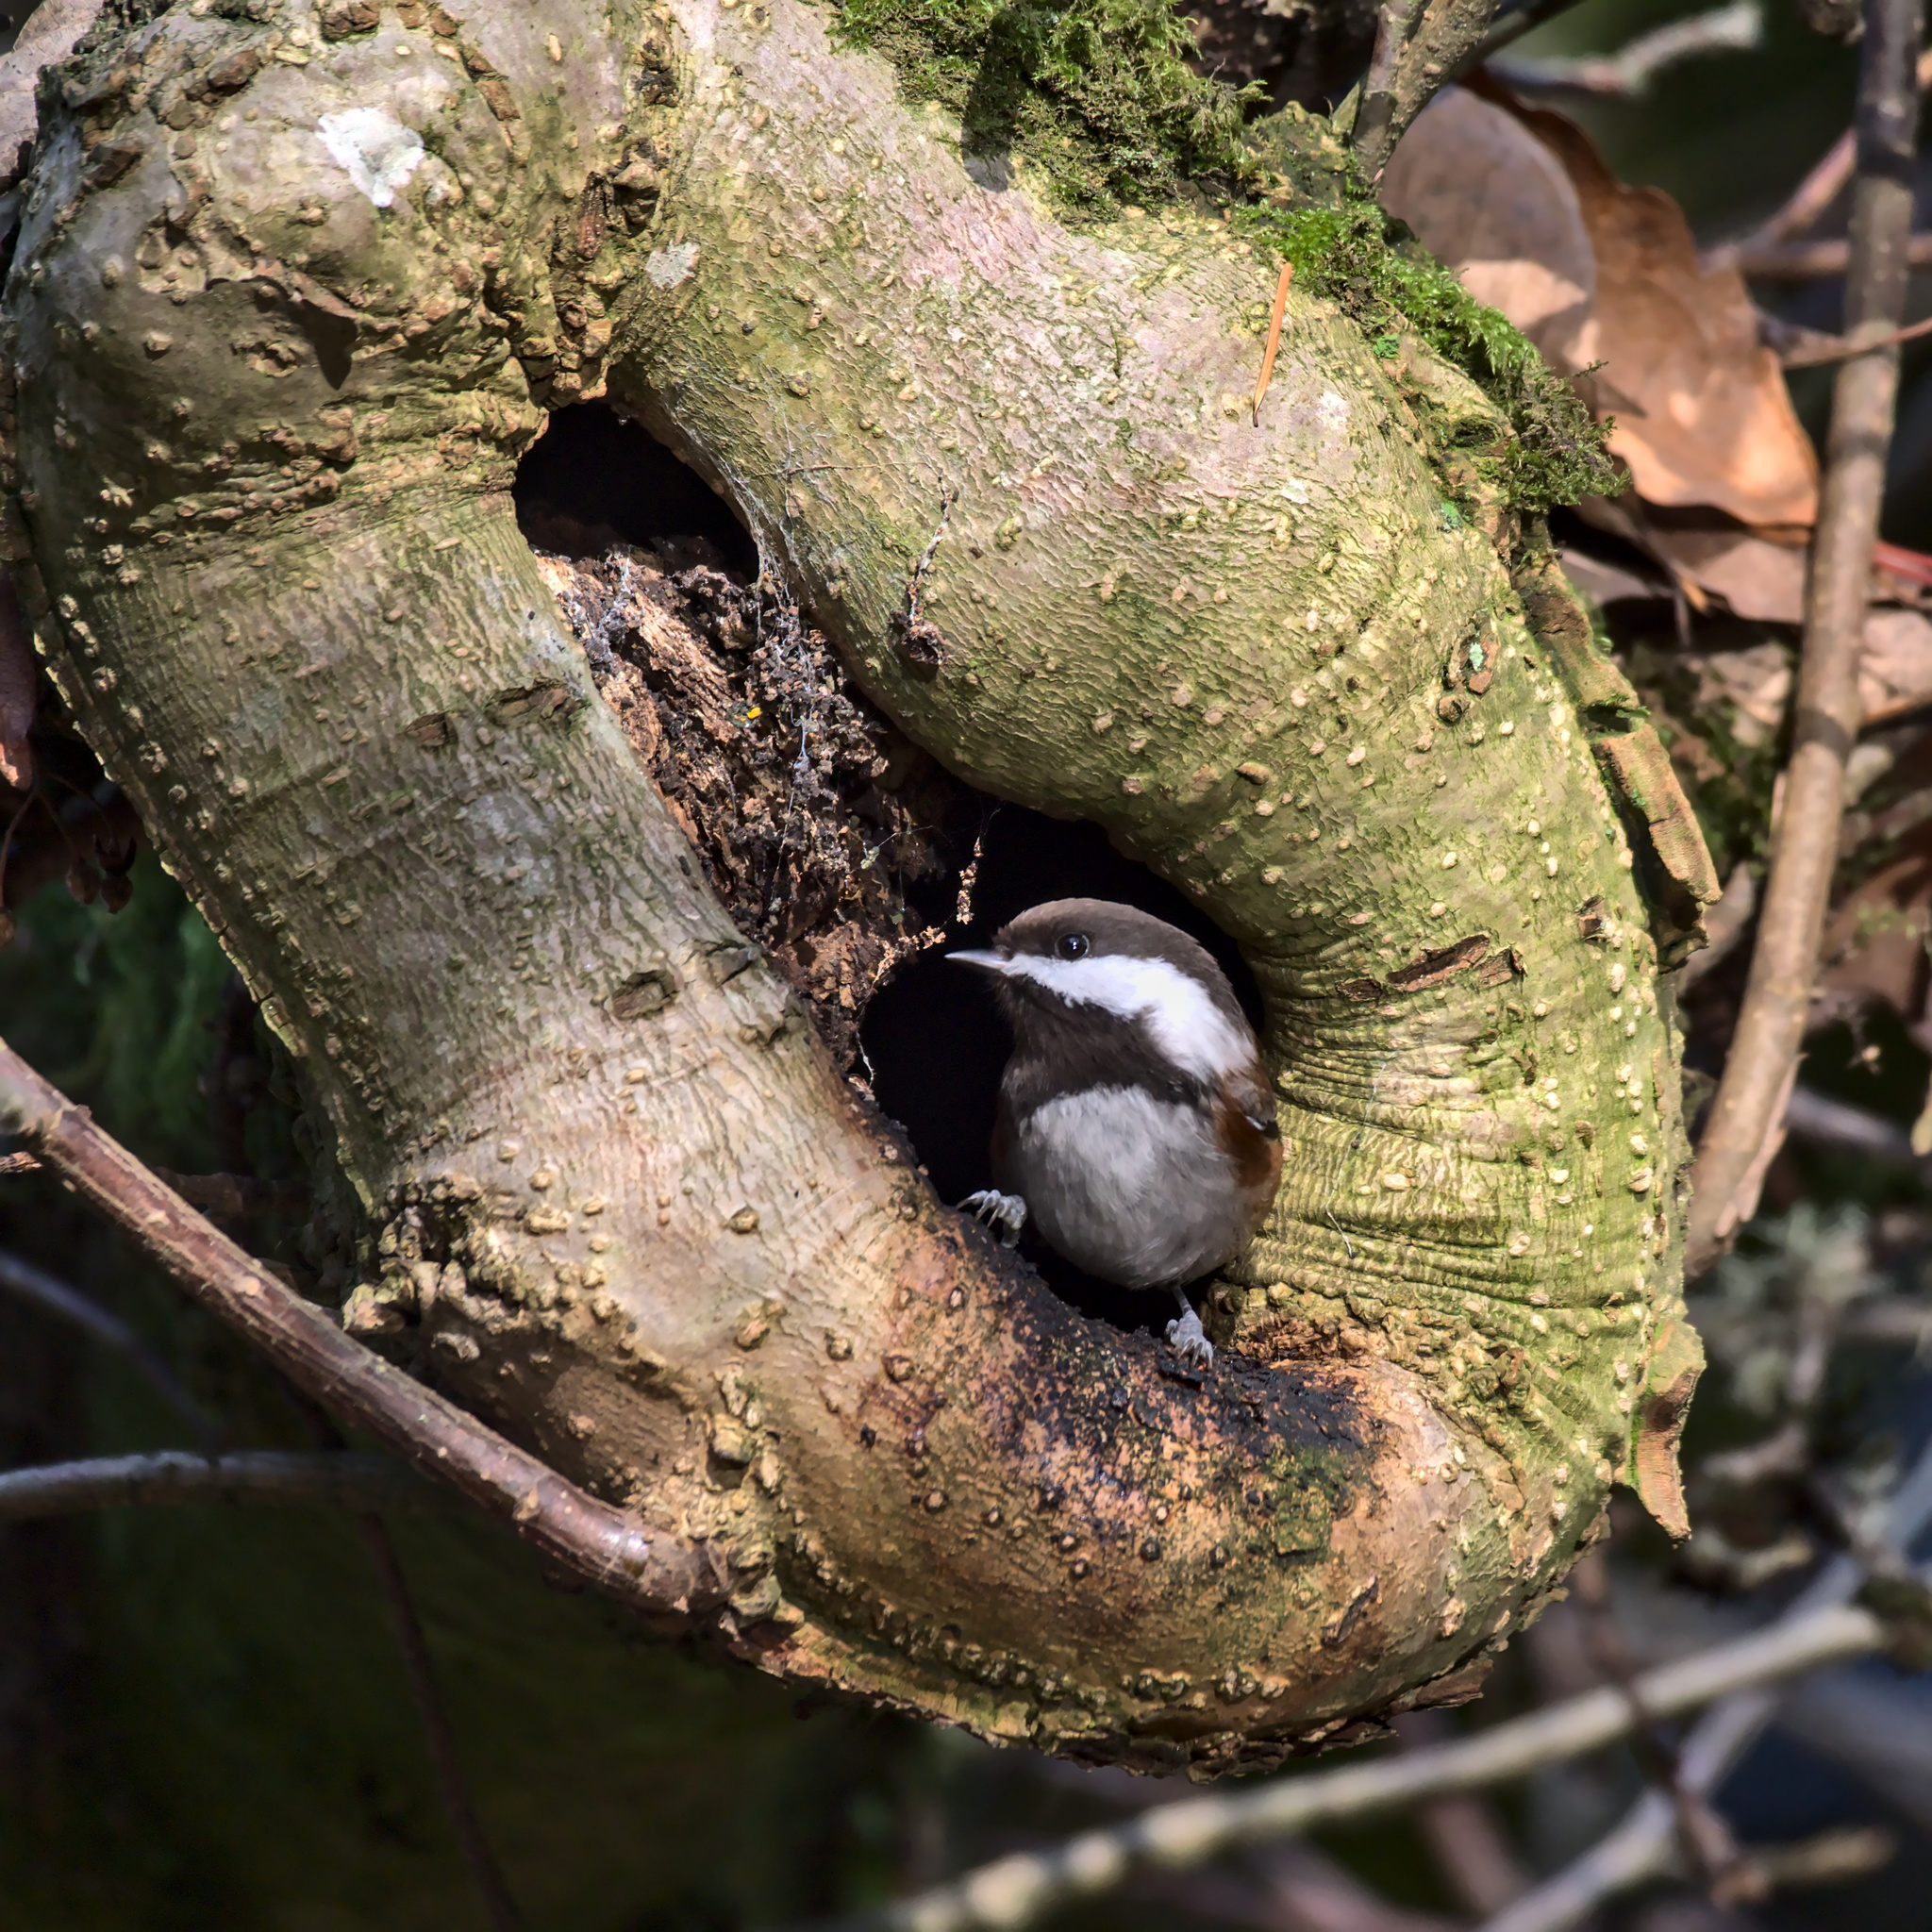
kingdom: Animalia
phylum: Chordata
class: Aves
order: Passeriformes
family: Paridae
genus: Poecile
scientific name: Poecile rufescens
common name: Chestnut-backed chickadee
